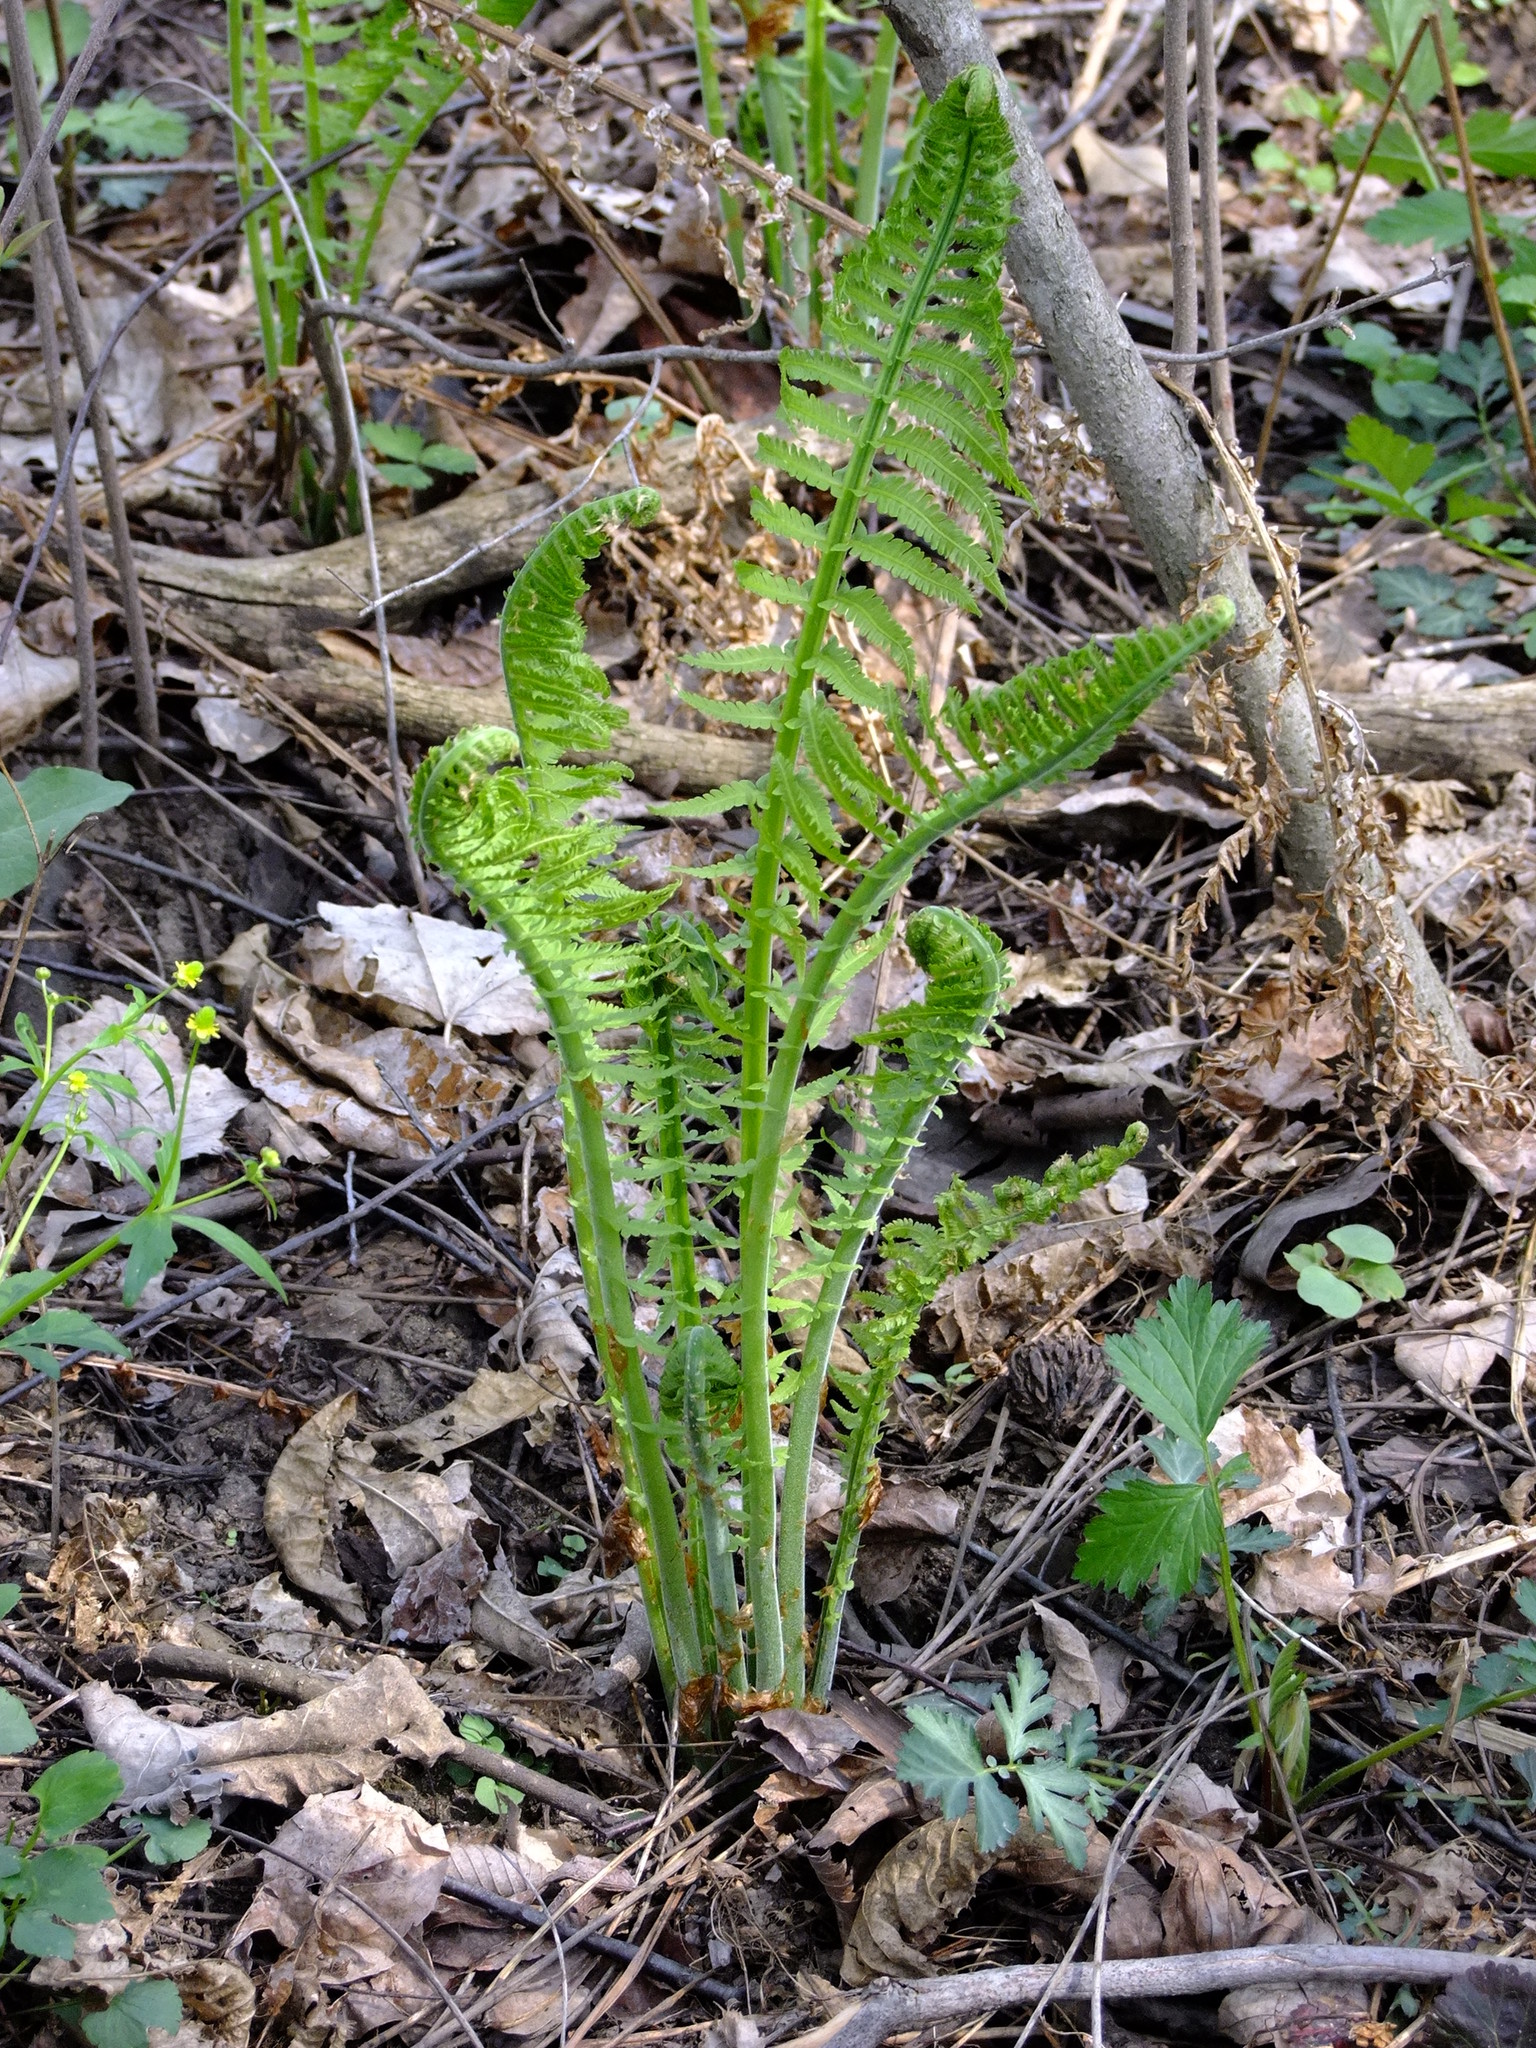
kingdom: Plantae
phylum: Tracheophyta
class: Polypodiopsida
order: Polypodiales
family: Onocleaceae
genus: Matteuccia
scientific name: Matteuccia struthiopteris
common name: Ostrich fern
